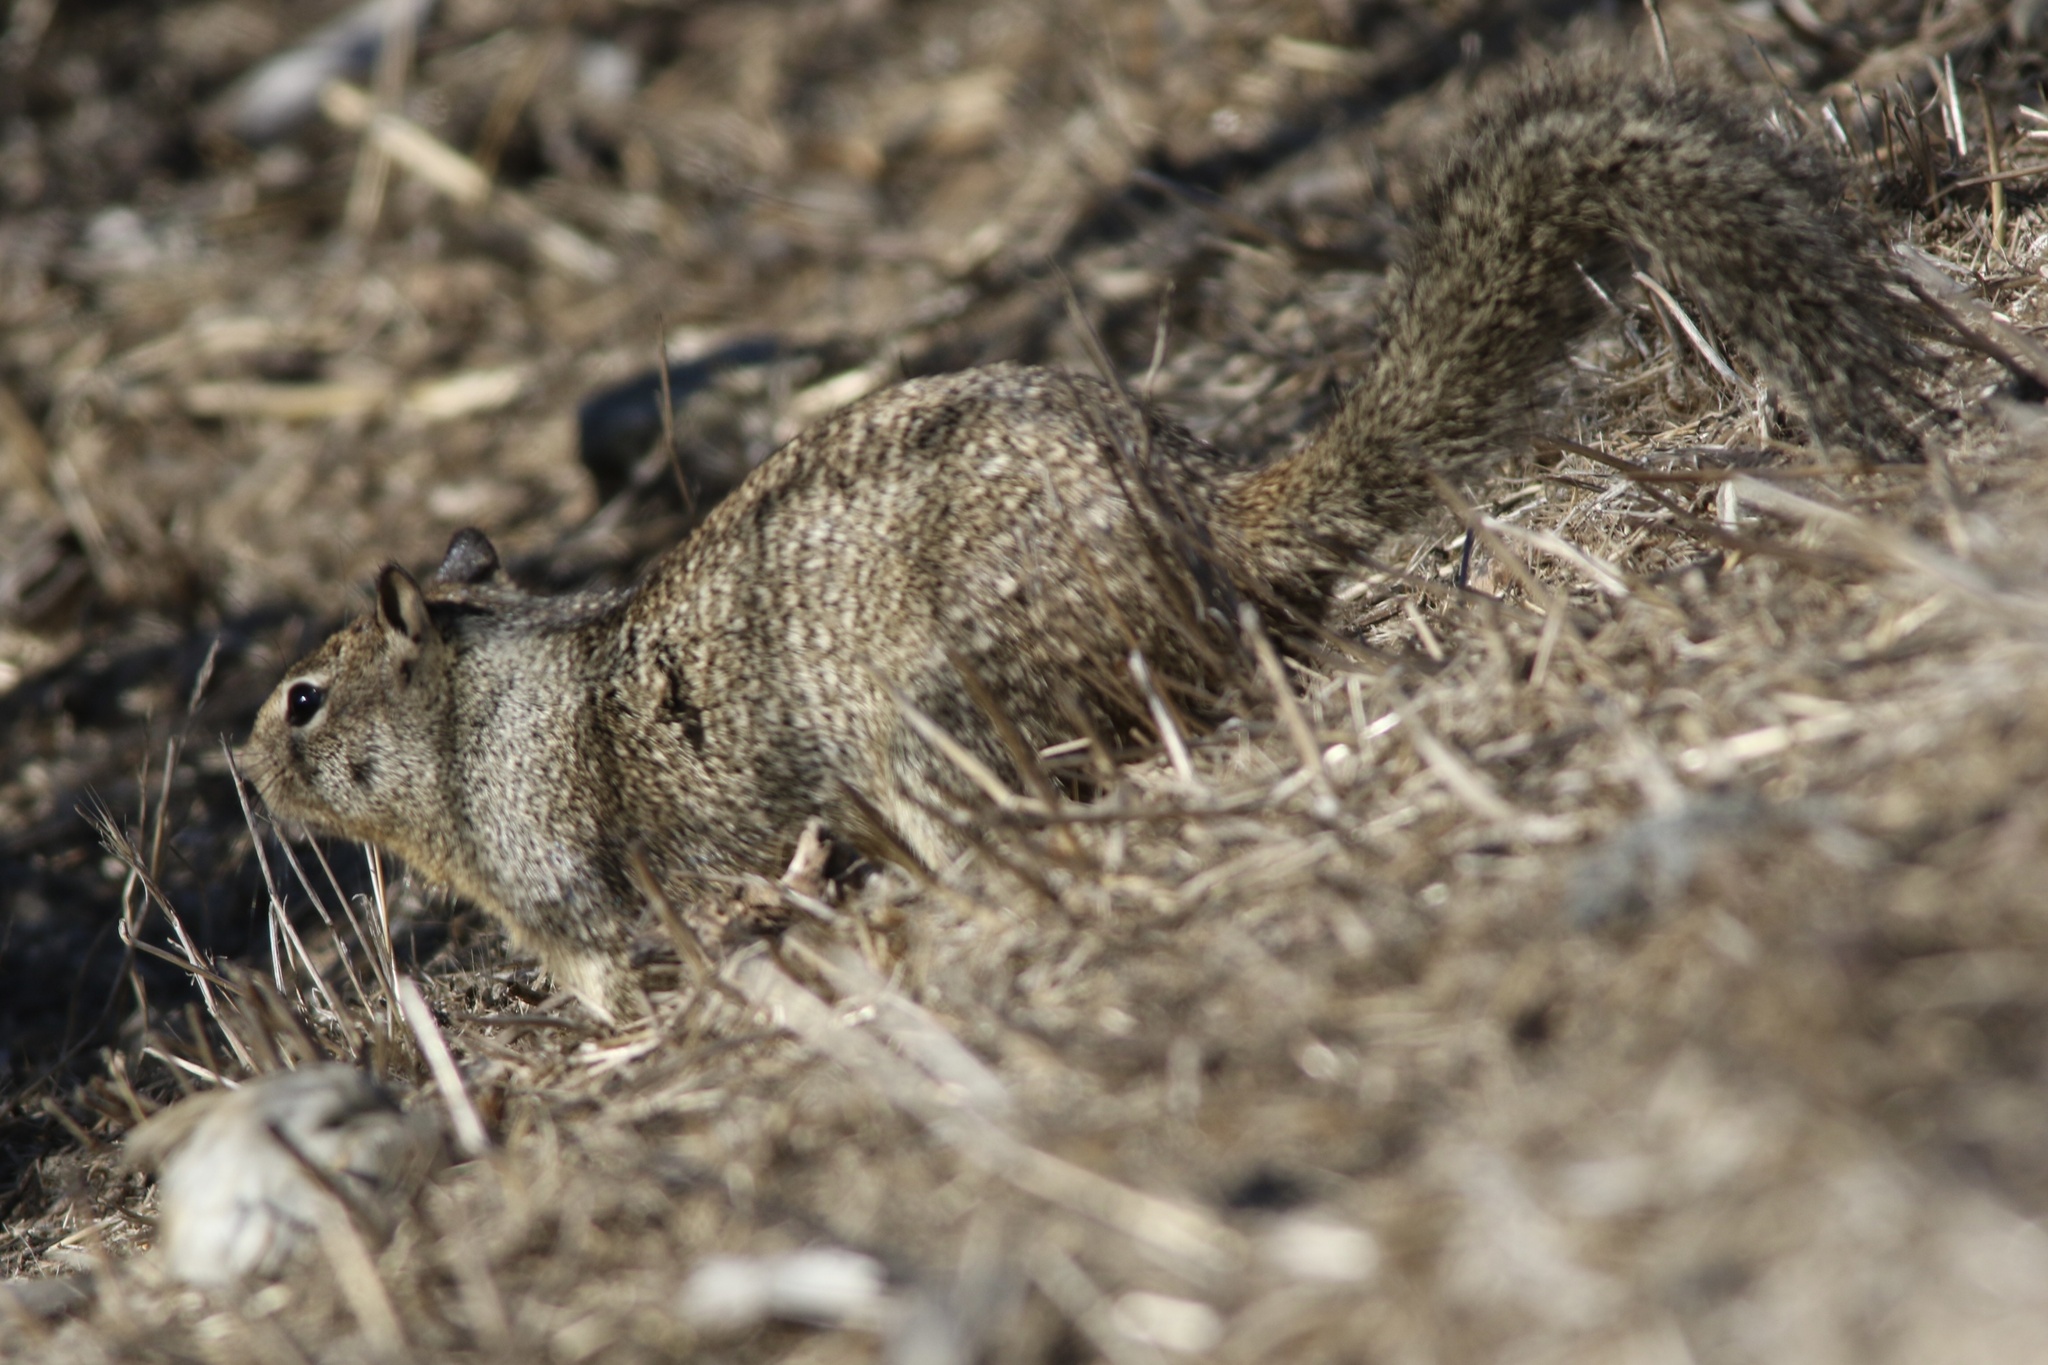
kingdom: Animalia
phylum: Chordata
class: Mammalia
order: Rodentia
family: Sciuridae
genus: Otospermophilus
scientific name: Otospermophilus beecheyi
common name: California ground squirrel
